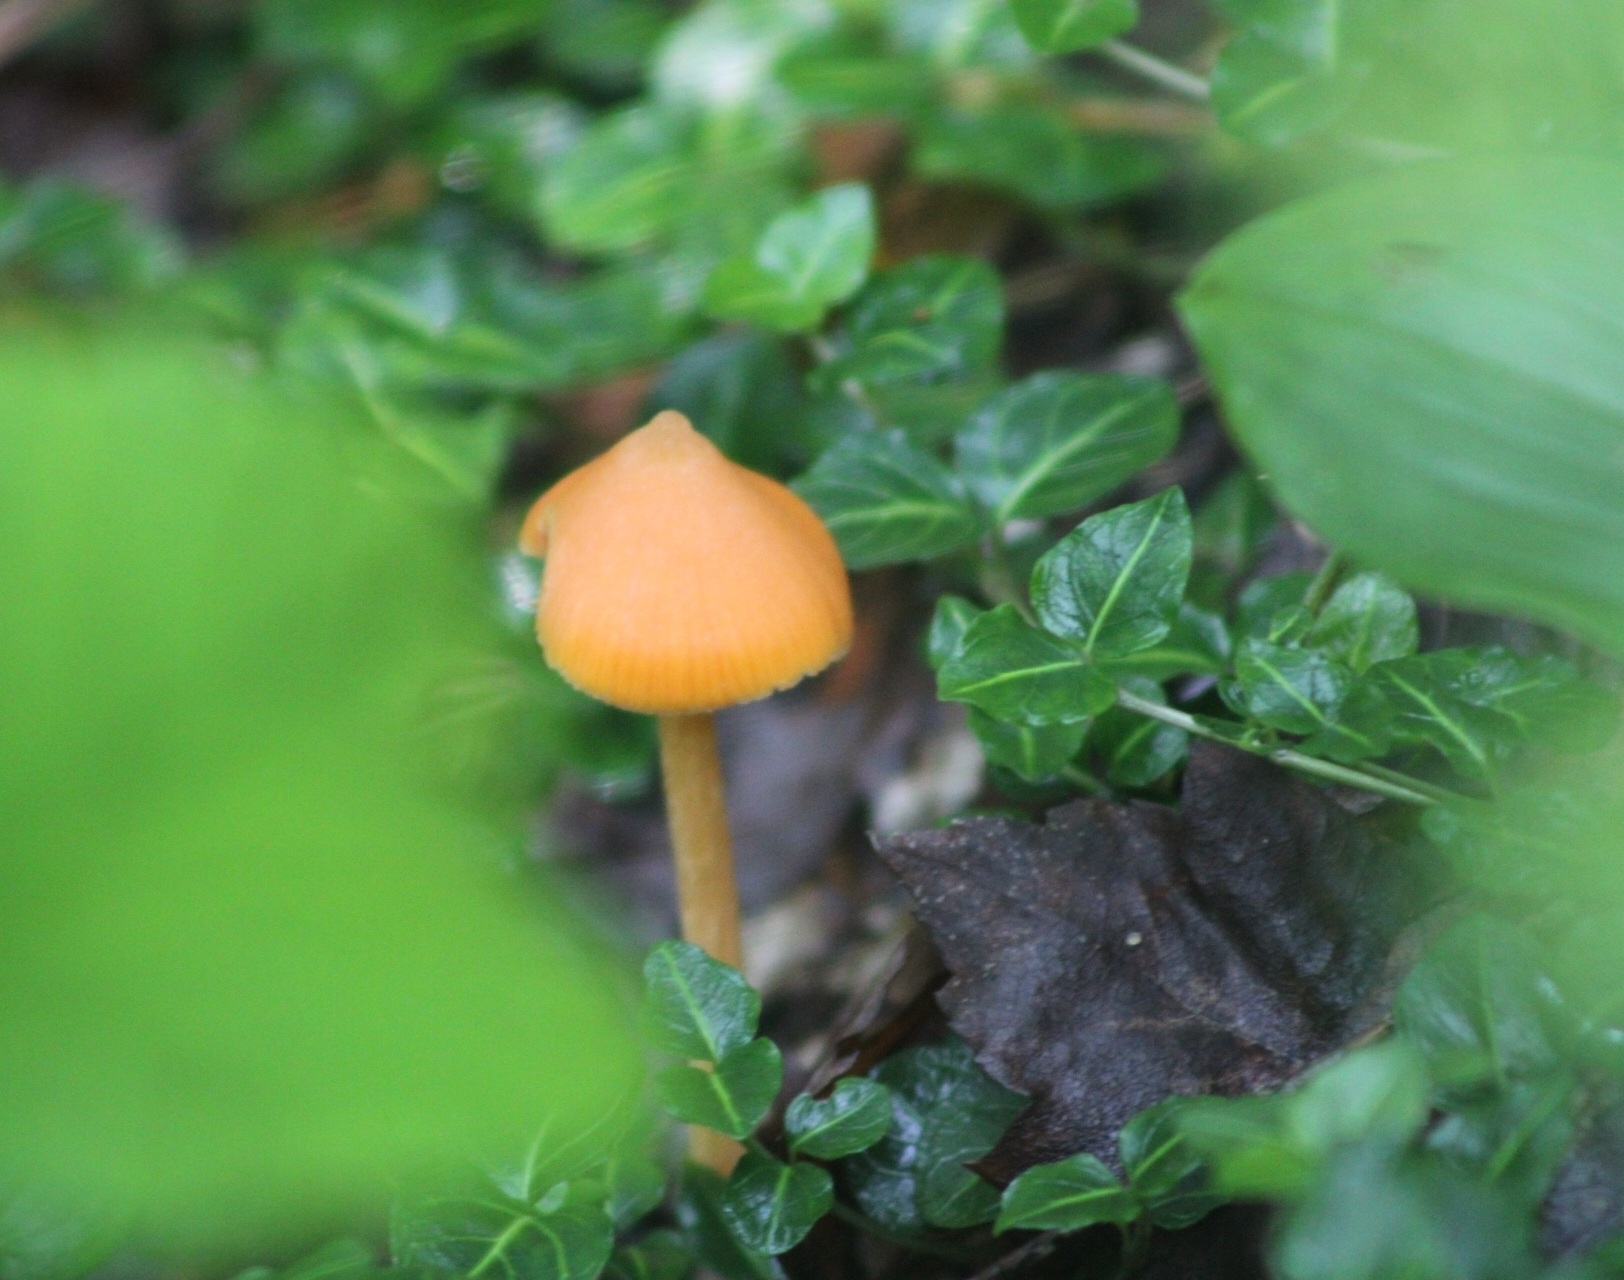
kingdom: Fungi
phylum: Basidiomycota
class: Agaricomycetes
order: Agaricales
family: Entolomataceae
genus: Entoloma
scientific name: Entoloma quadratum
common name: Salmon pinkgill
